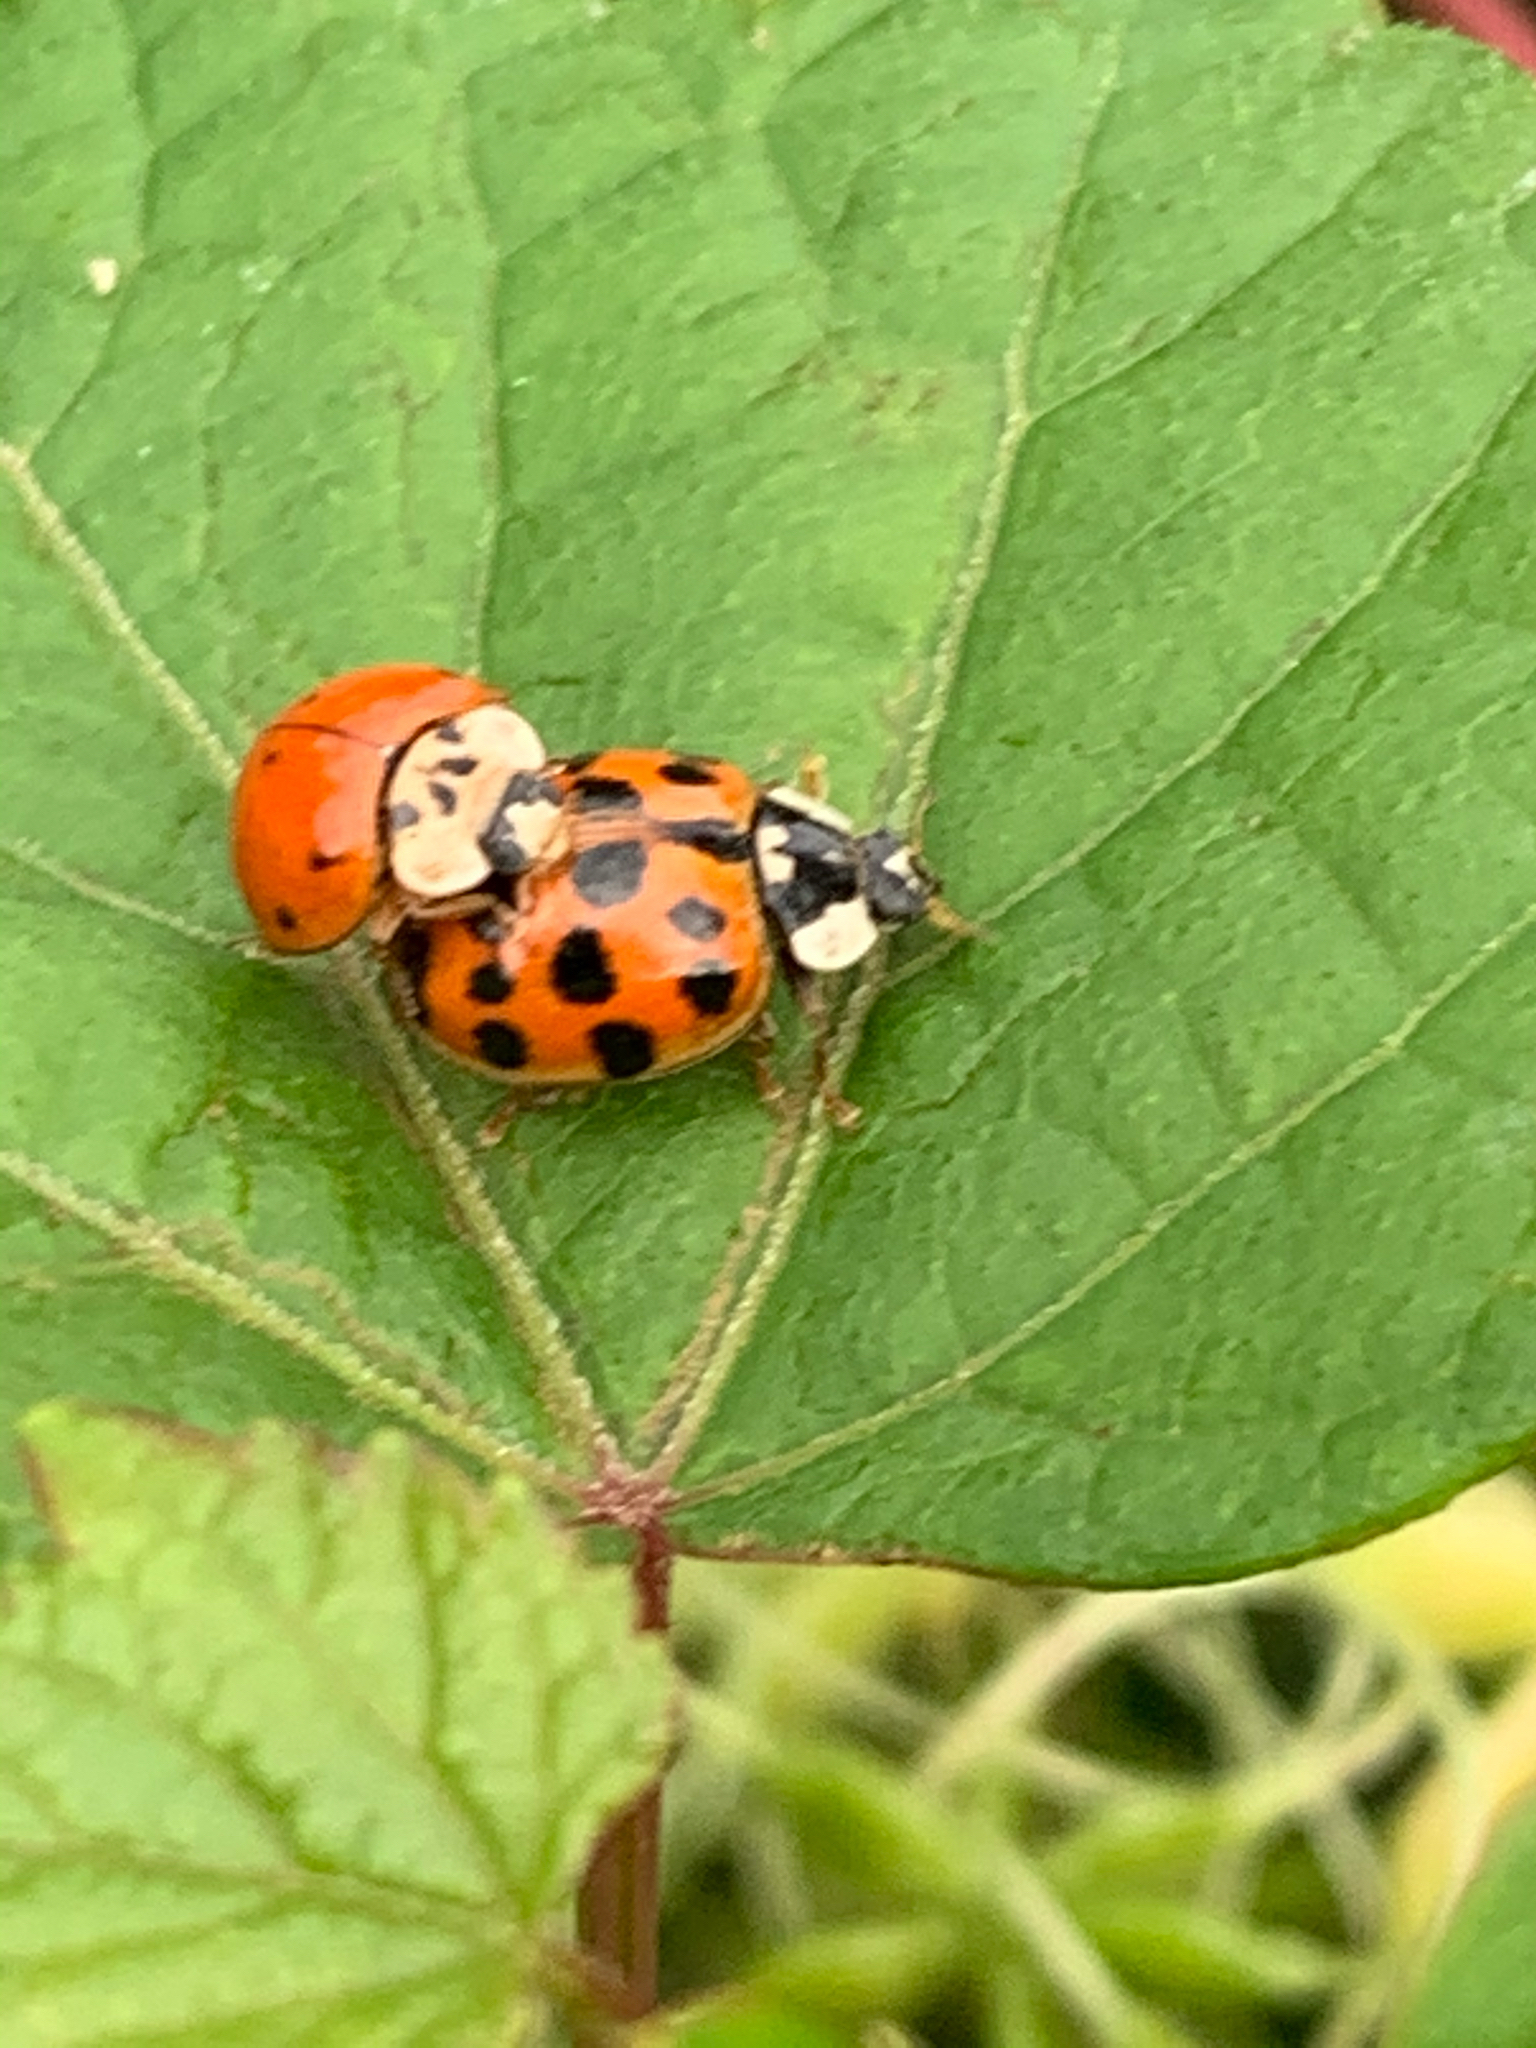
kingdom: Animalia
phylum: Arthropoda
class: Insecta
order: Coleoptera
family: Coccinellidae
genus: Harmonia
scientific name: Harmonia axyridis
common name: Harlequin ladybird
